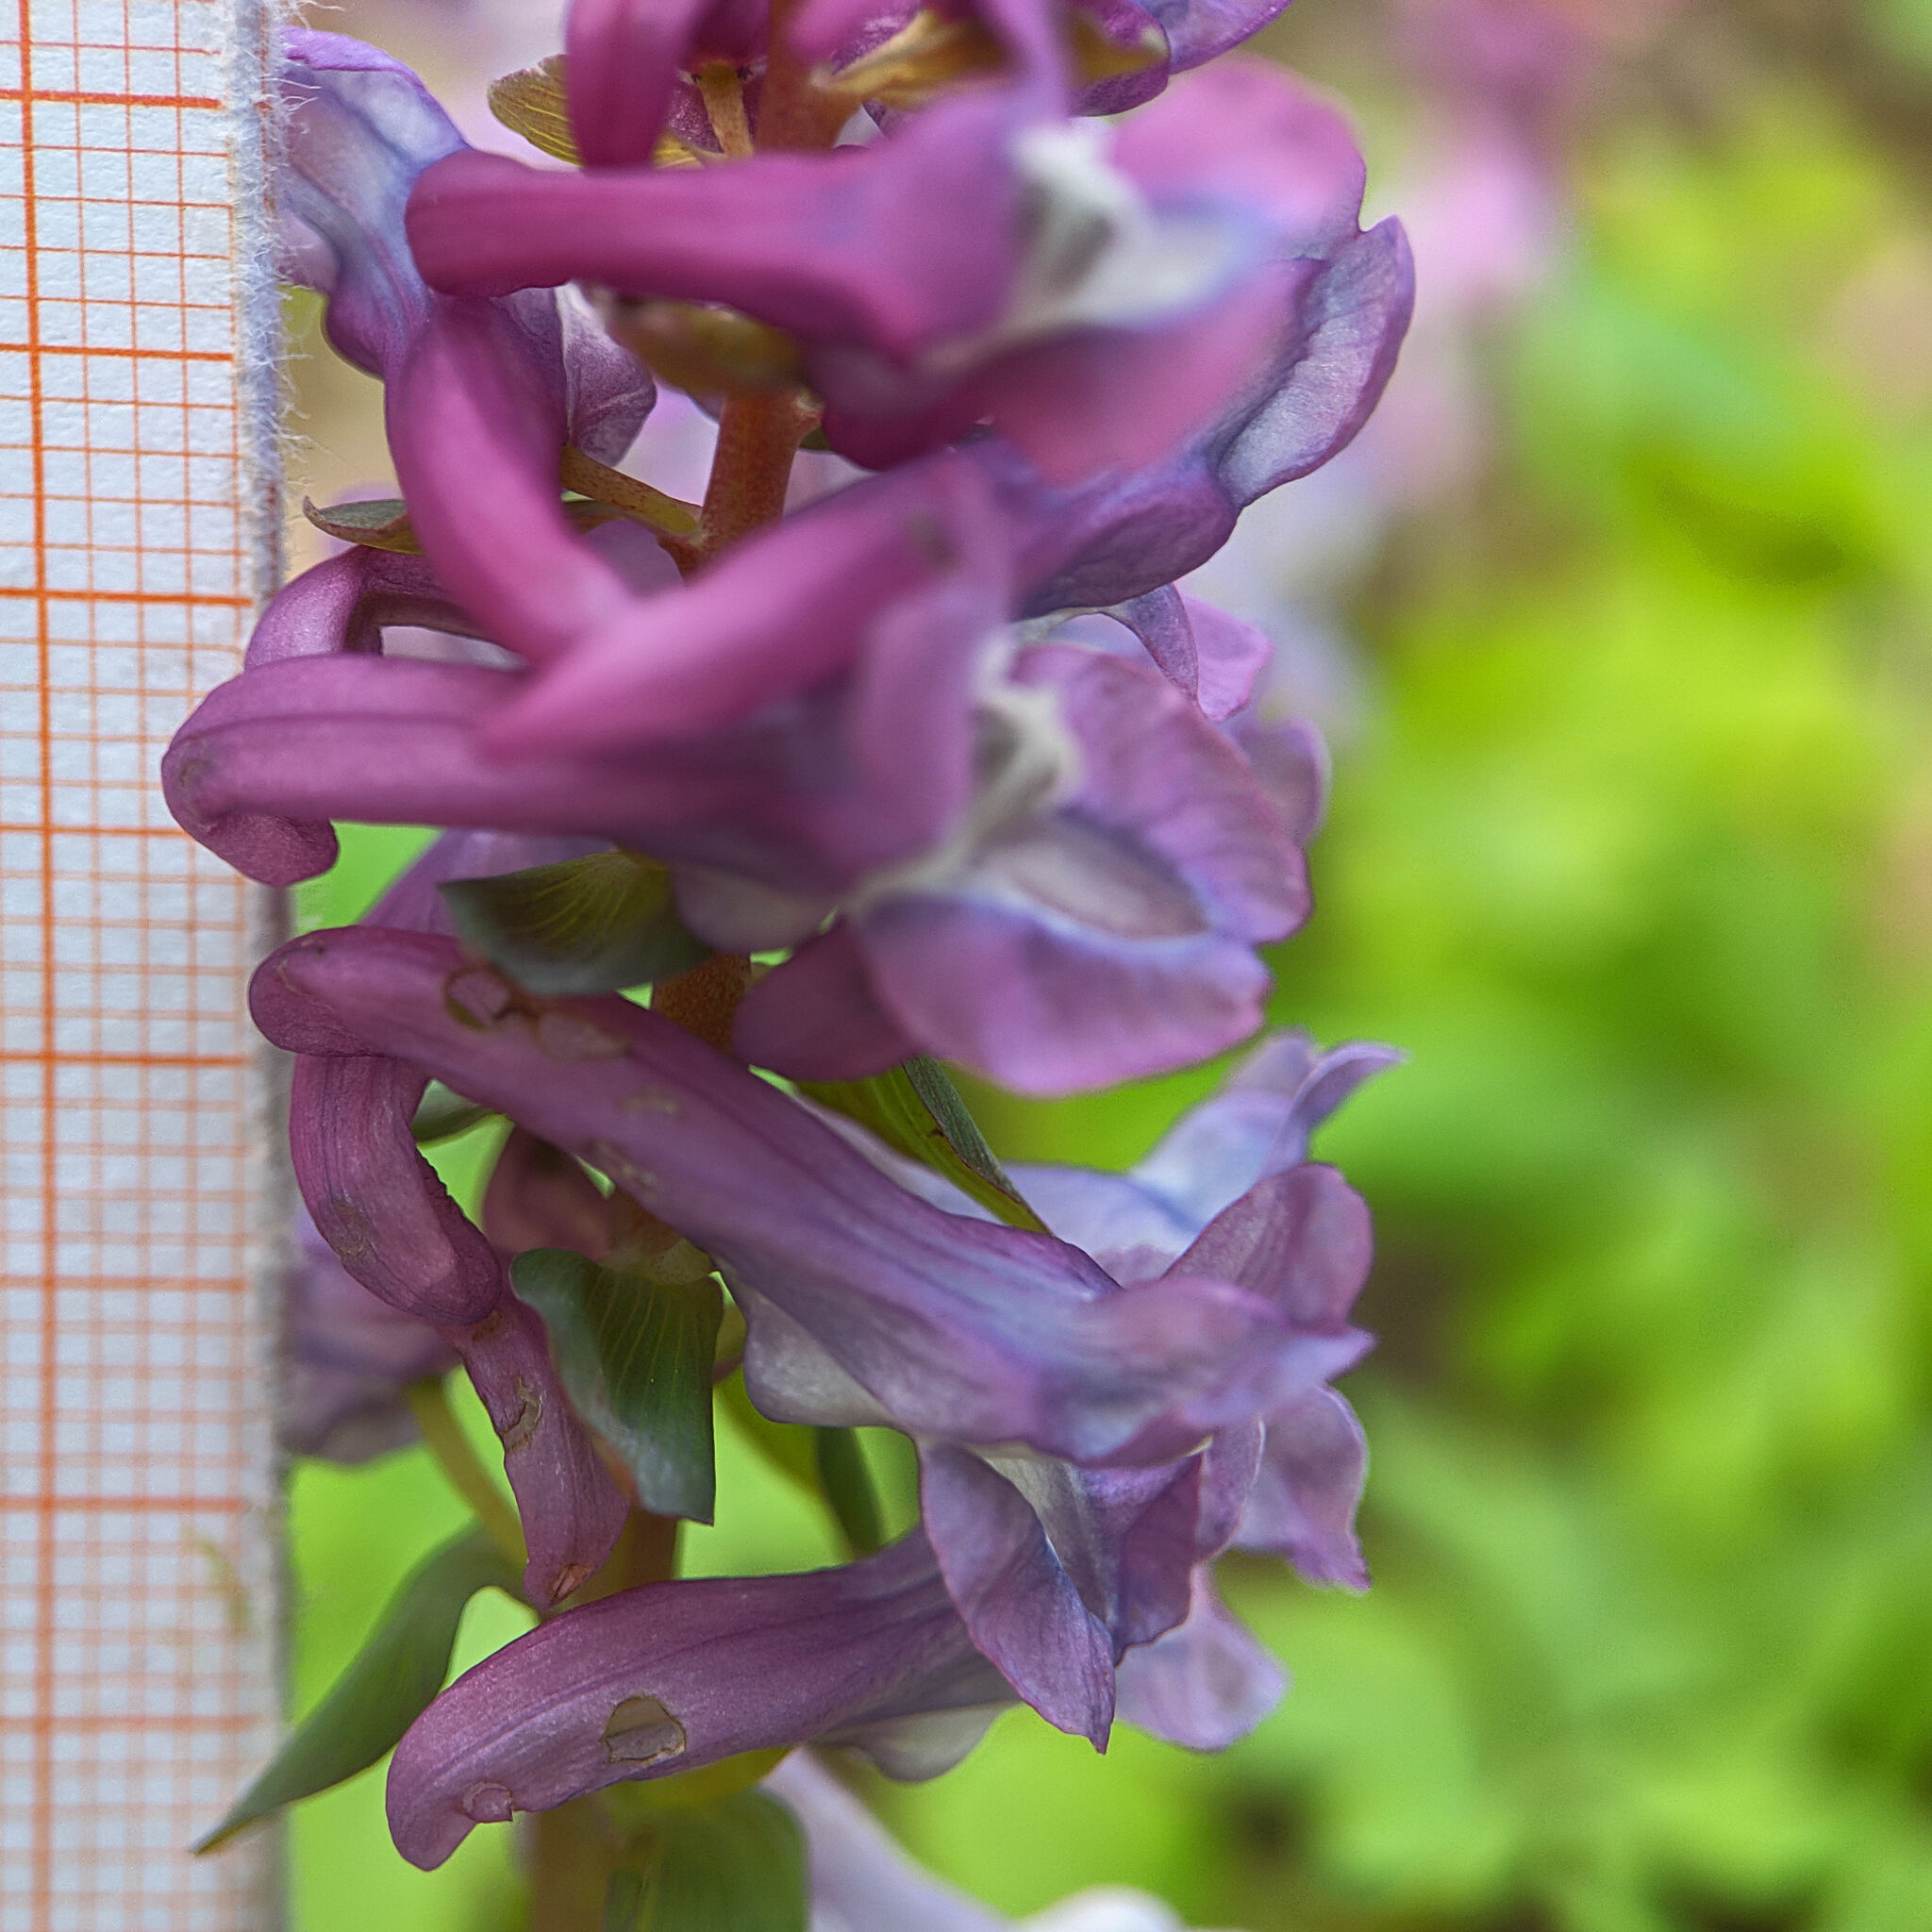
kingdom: Plantae
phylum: Tracheophyta
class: Magnoliopsida
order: Ranunculales
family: Papaveraceae
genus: Corydalis
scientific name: Corydalis cava
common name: Hollowroot
